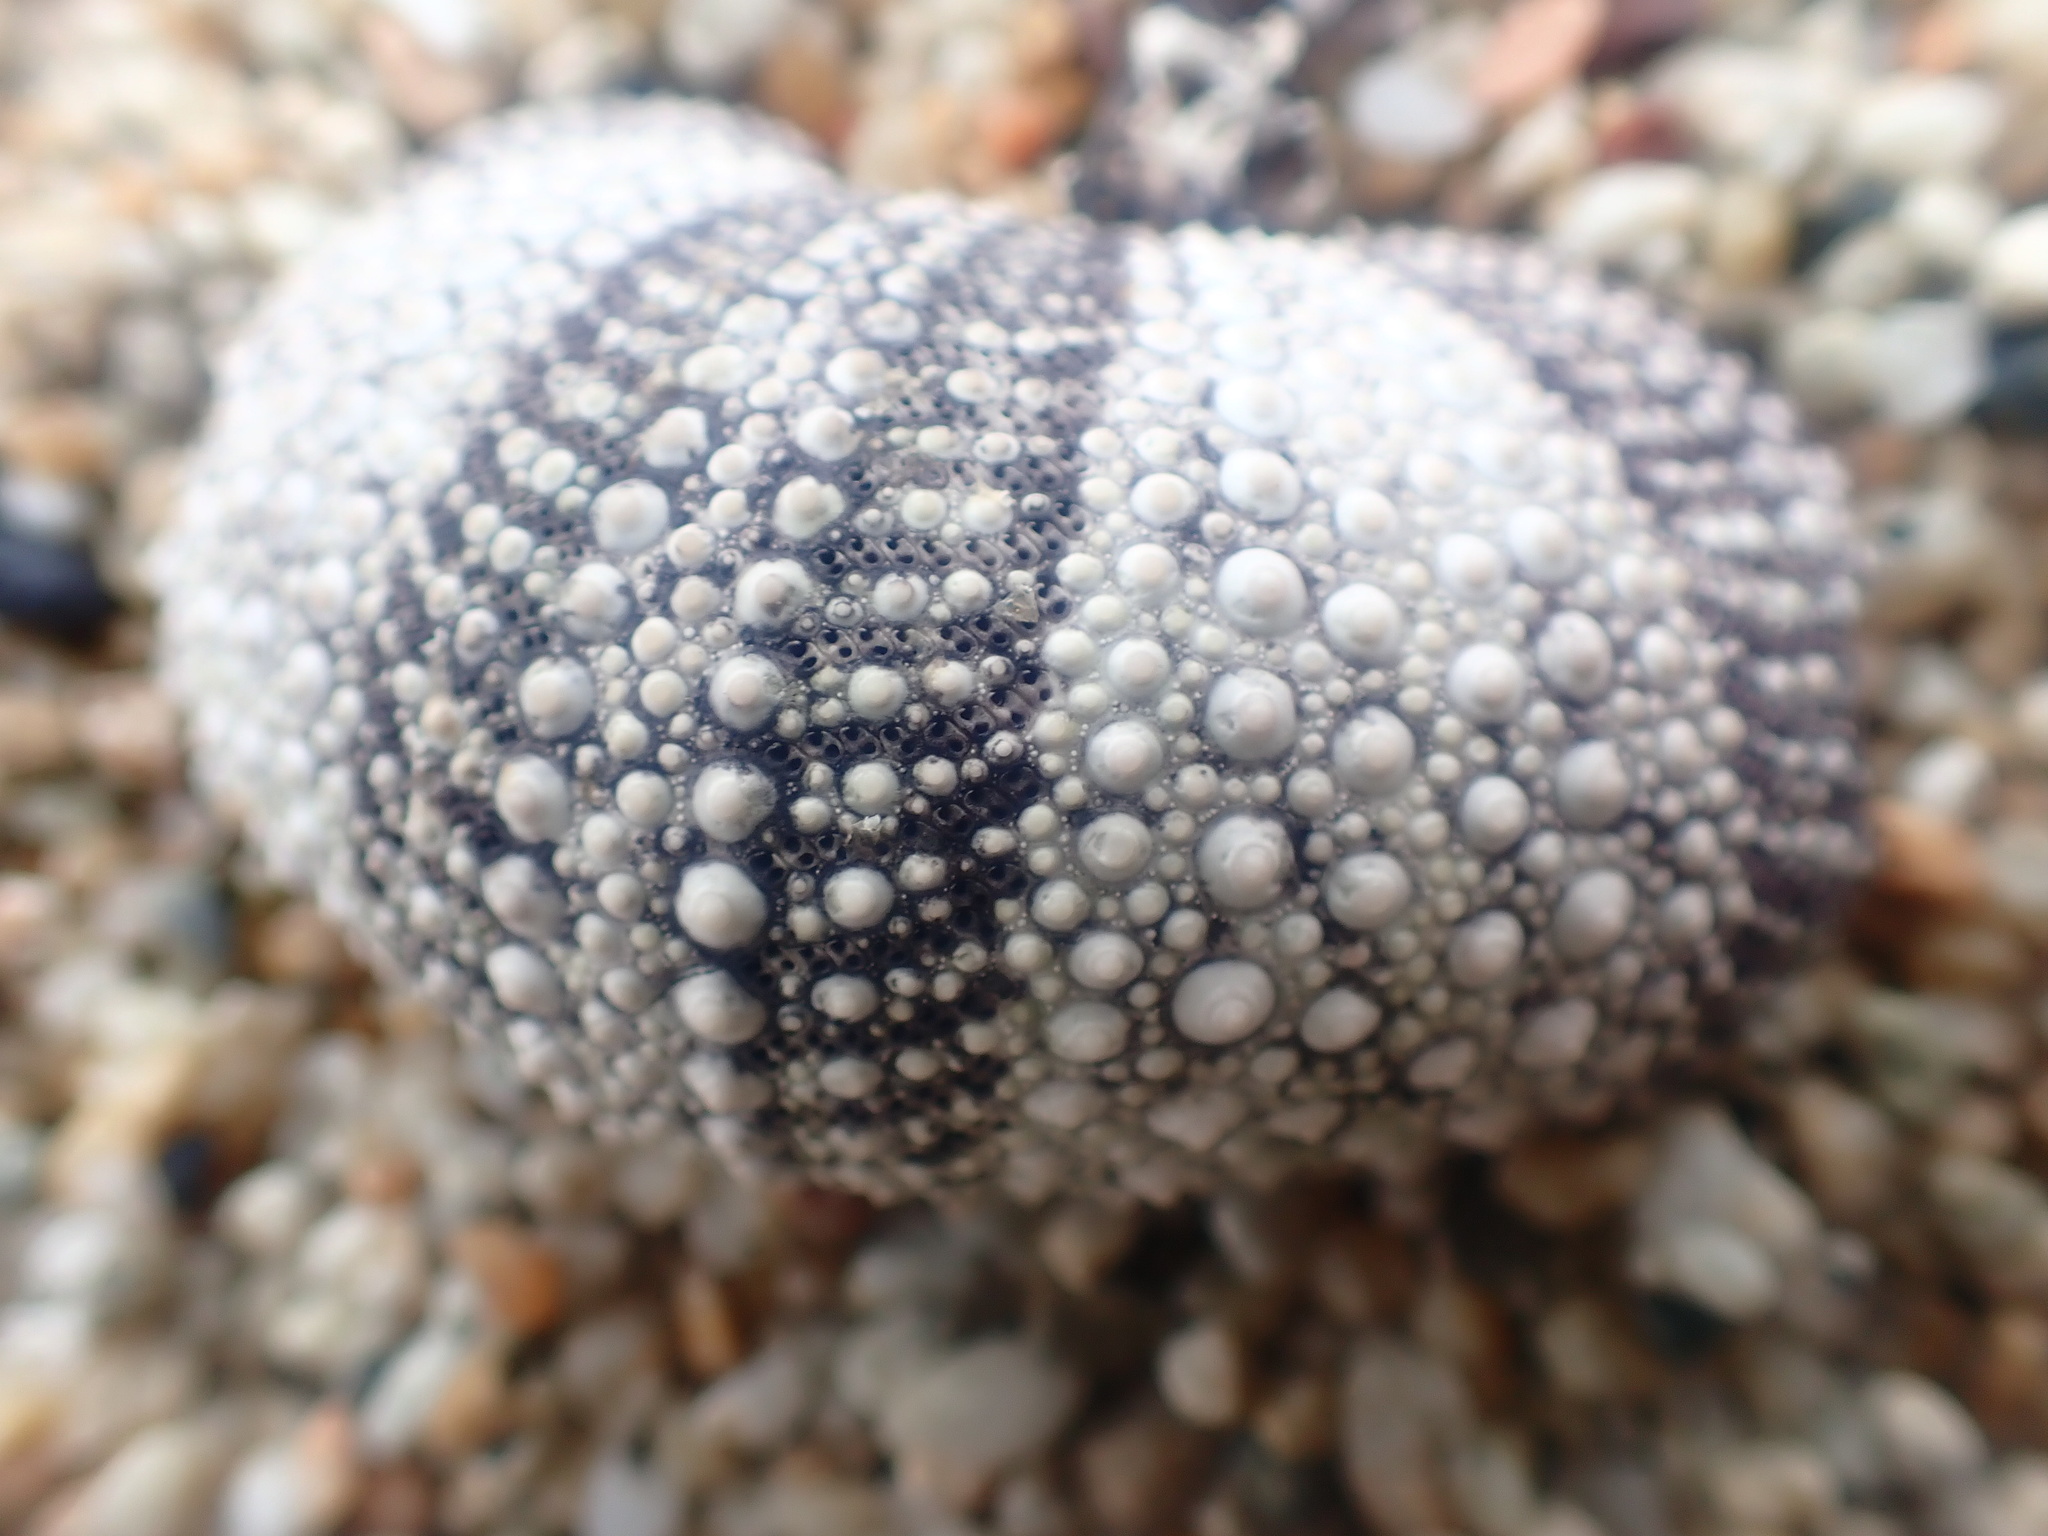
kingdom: Animalia
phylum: Echinodermata
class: Echinoidea
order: Camarodonta
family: Strongylocentrotidae
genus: Strongylocentrotus
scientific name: Strongylocentrotus purpuratus
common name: Purple sea urchin
